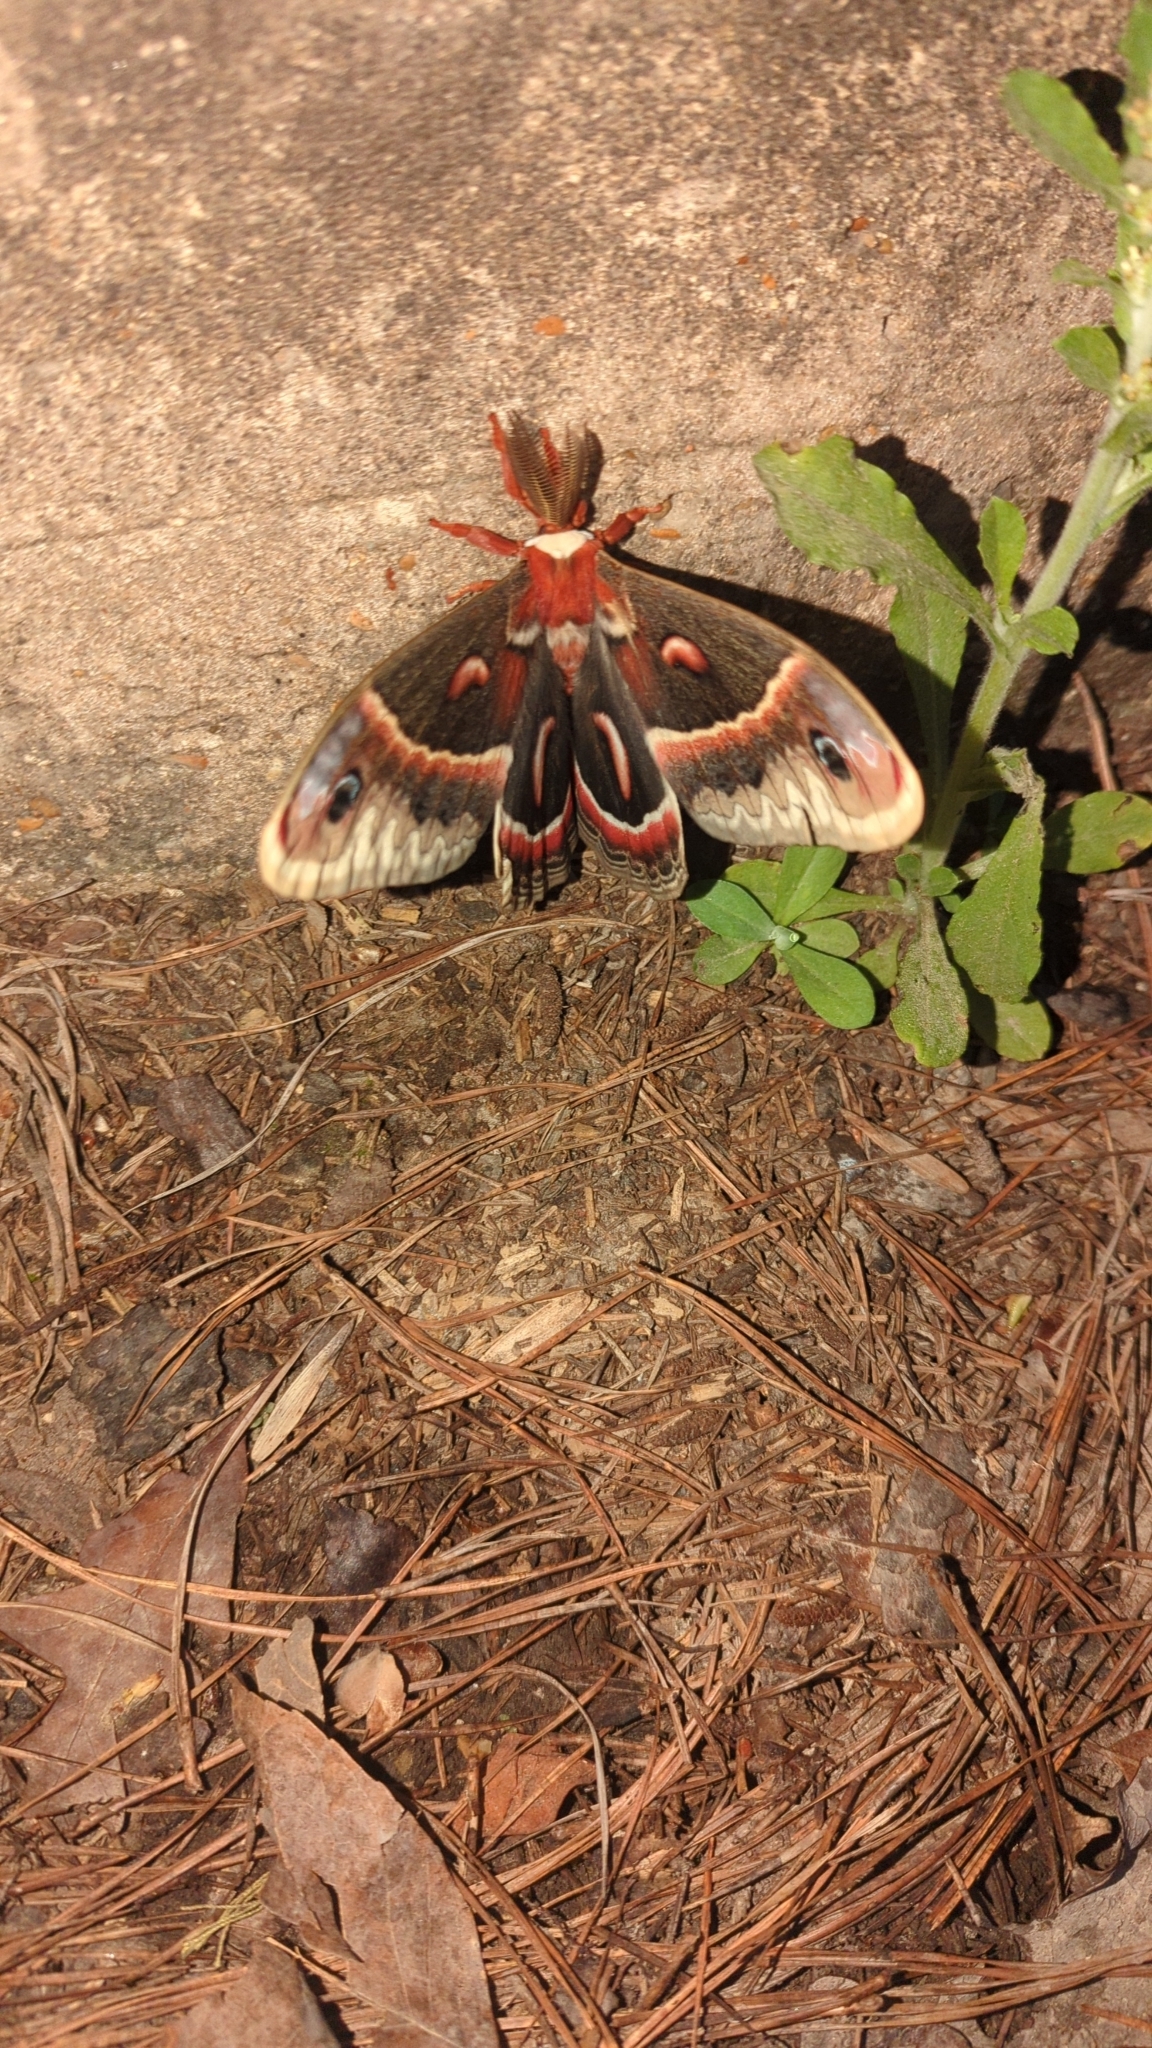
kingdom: Animalia
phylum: Arthropoda
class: Insecta
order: Lepidoptera
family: Saturniidae
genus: Hyalophora
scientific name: Hyalophora cecropia
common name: Cecropia silkmoth
